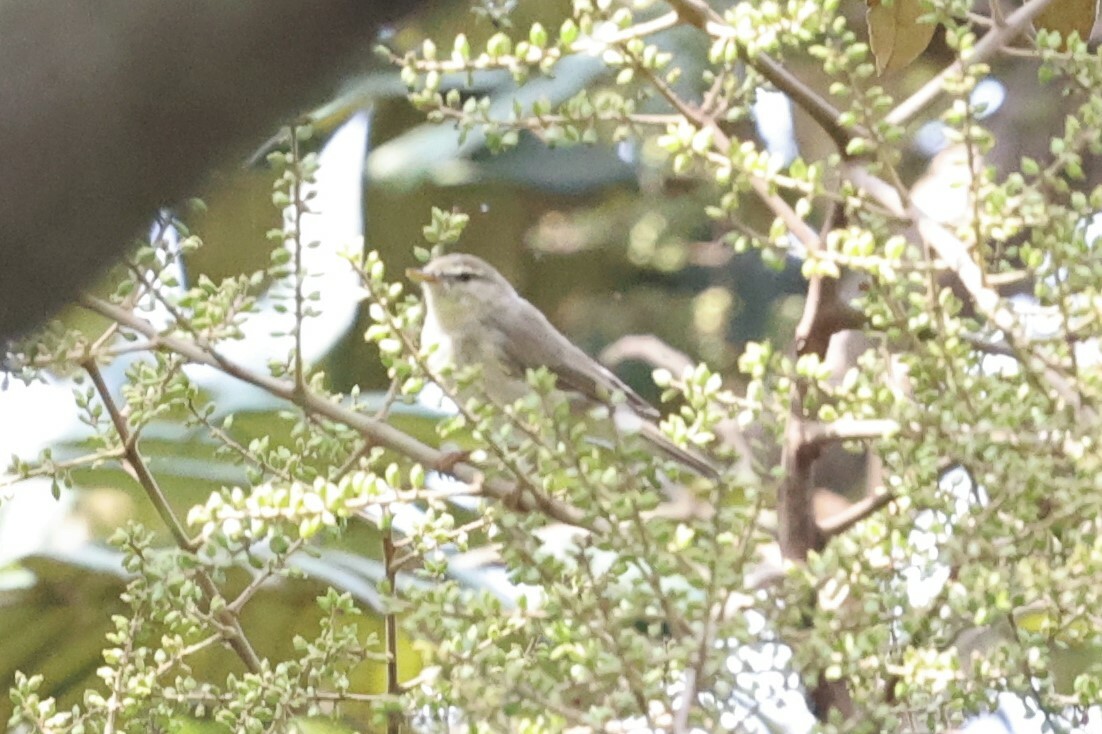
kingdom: Animalia
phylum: Chordata
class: Aves
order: Passeriformes
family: Phylloscopidae
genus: Phylloscopus
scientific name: Phylloscopus trochilus
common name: Willow warbler
